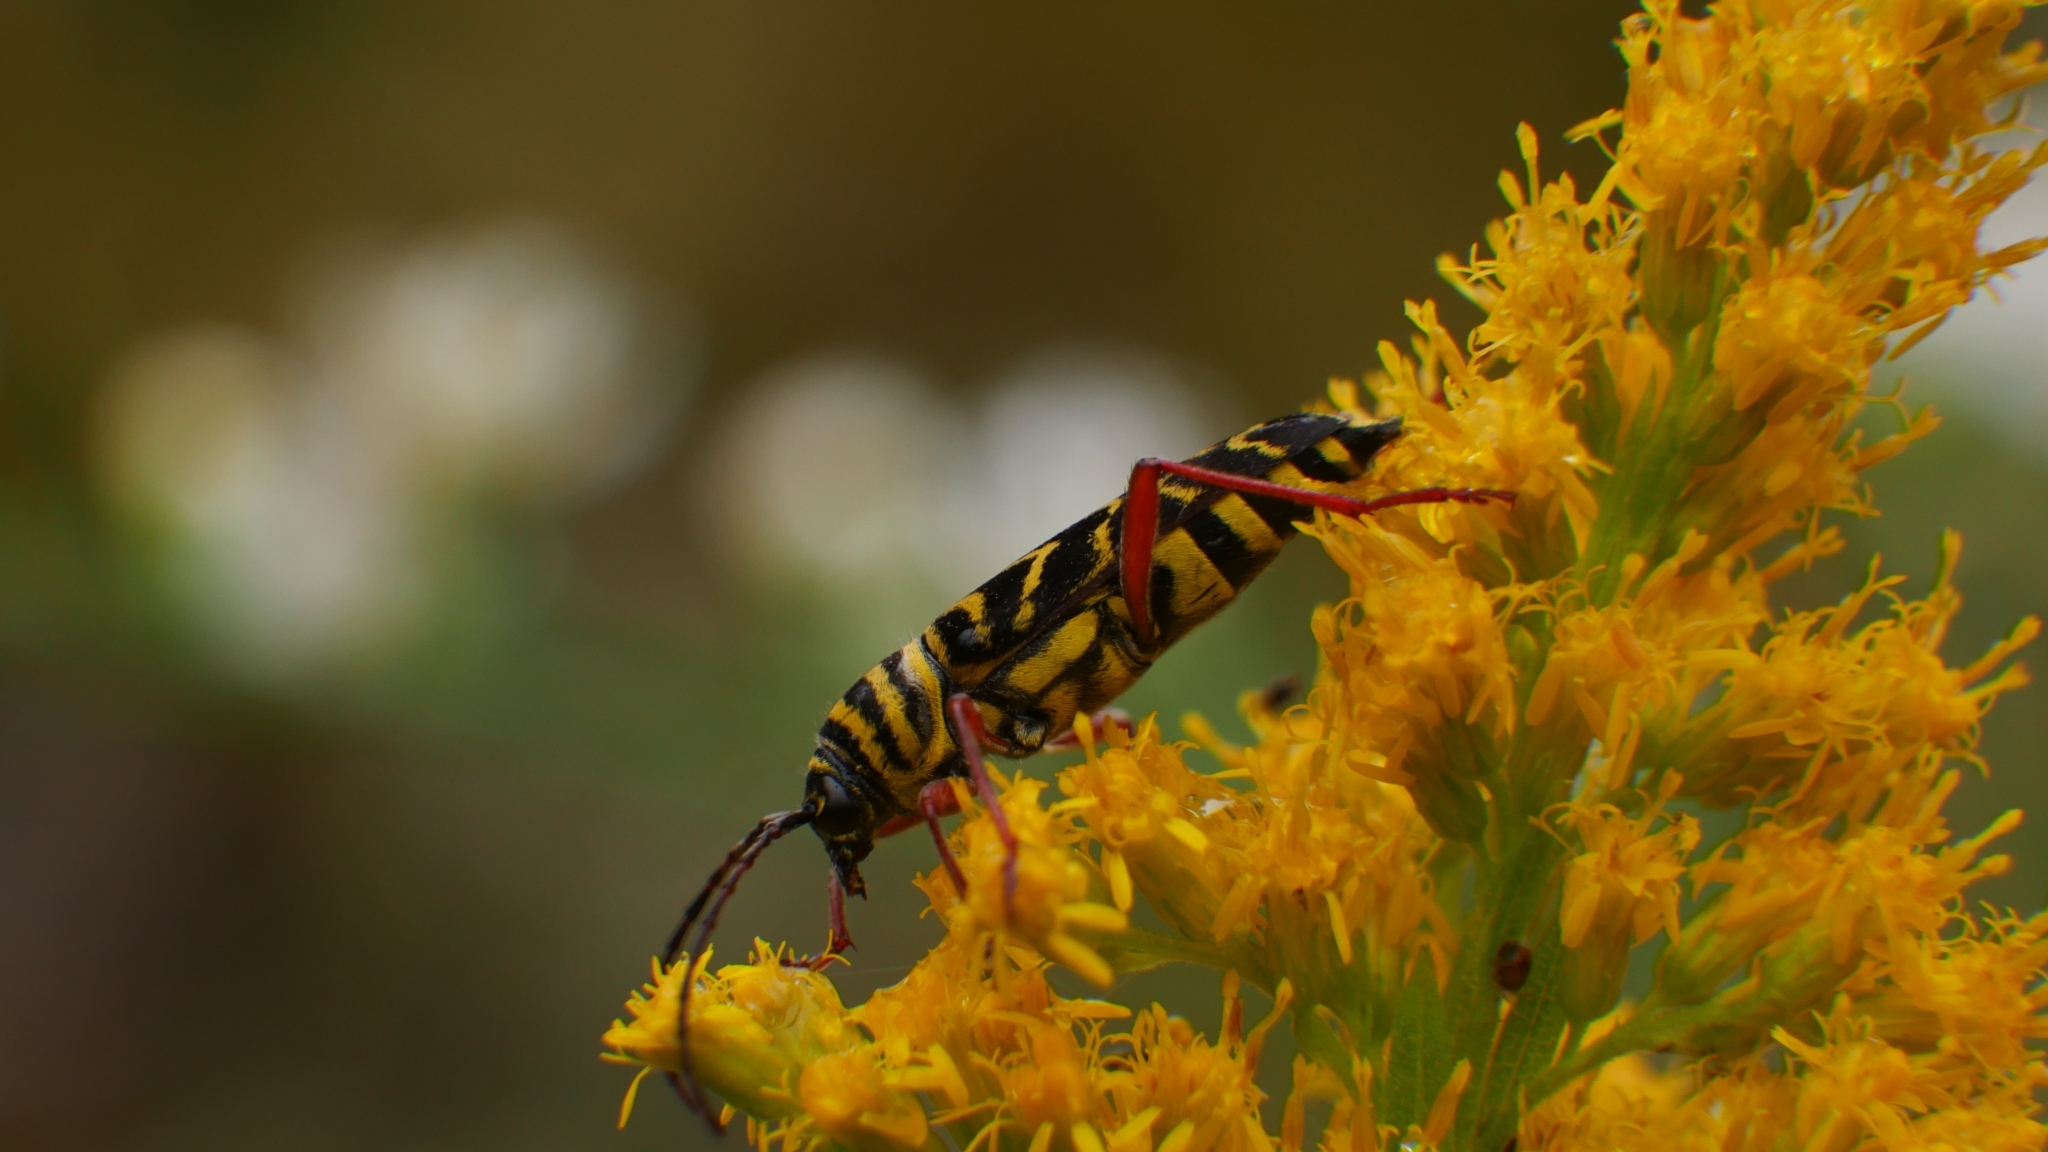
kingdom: Animalia
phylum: Arthropoda
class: Insecta
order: Coleoptera
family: Cerambycidae
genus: Megacyllene
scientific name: Megacyllene robiniae
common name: Locust borer
